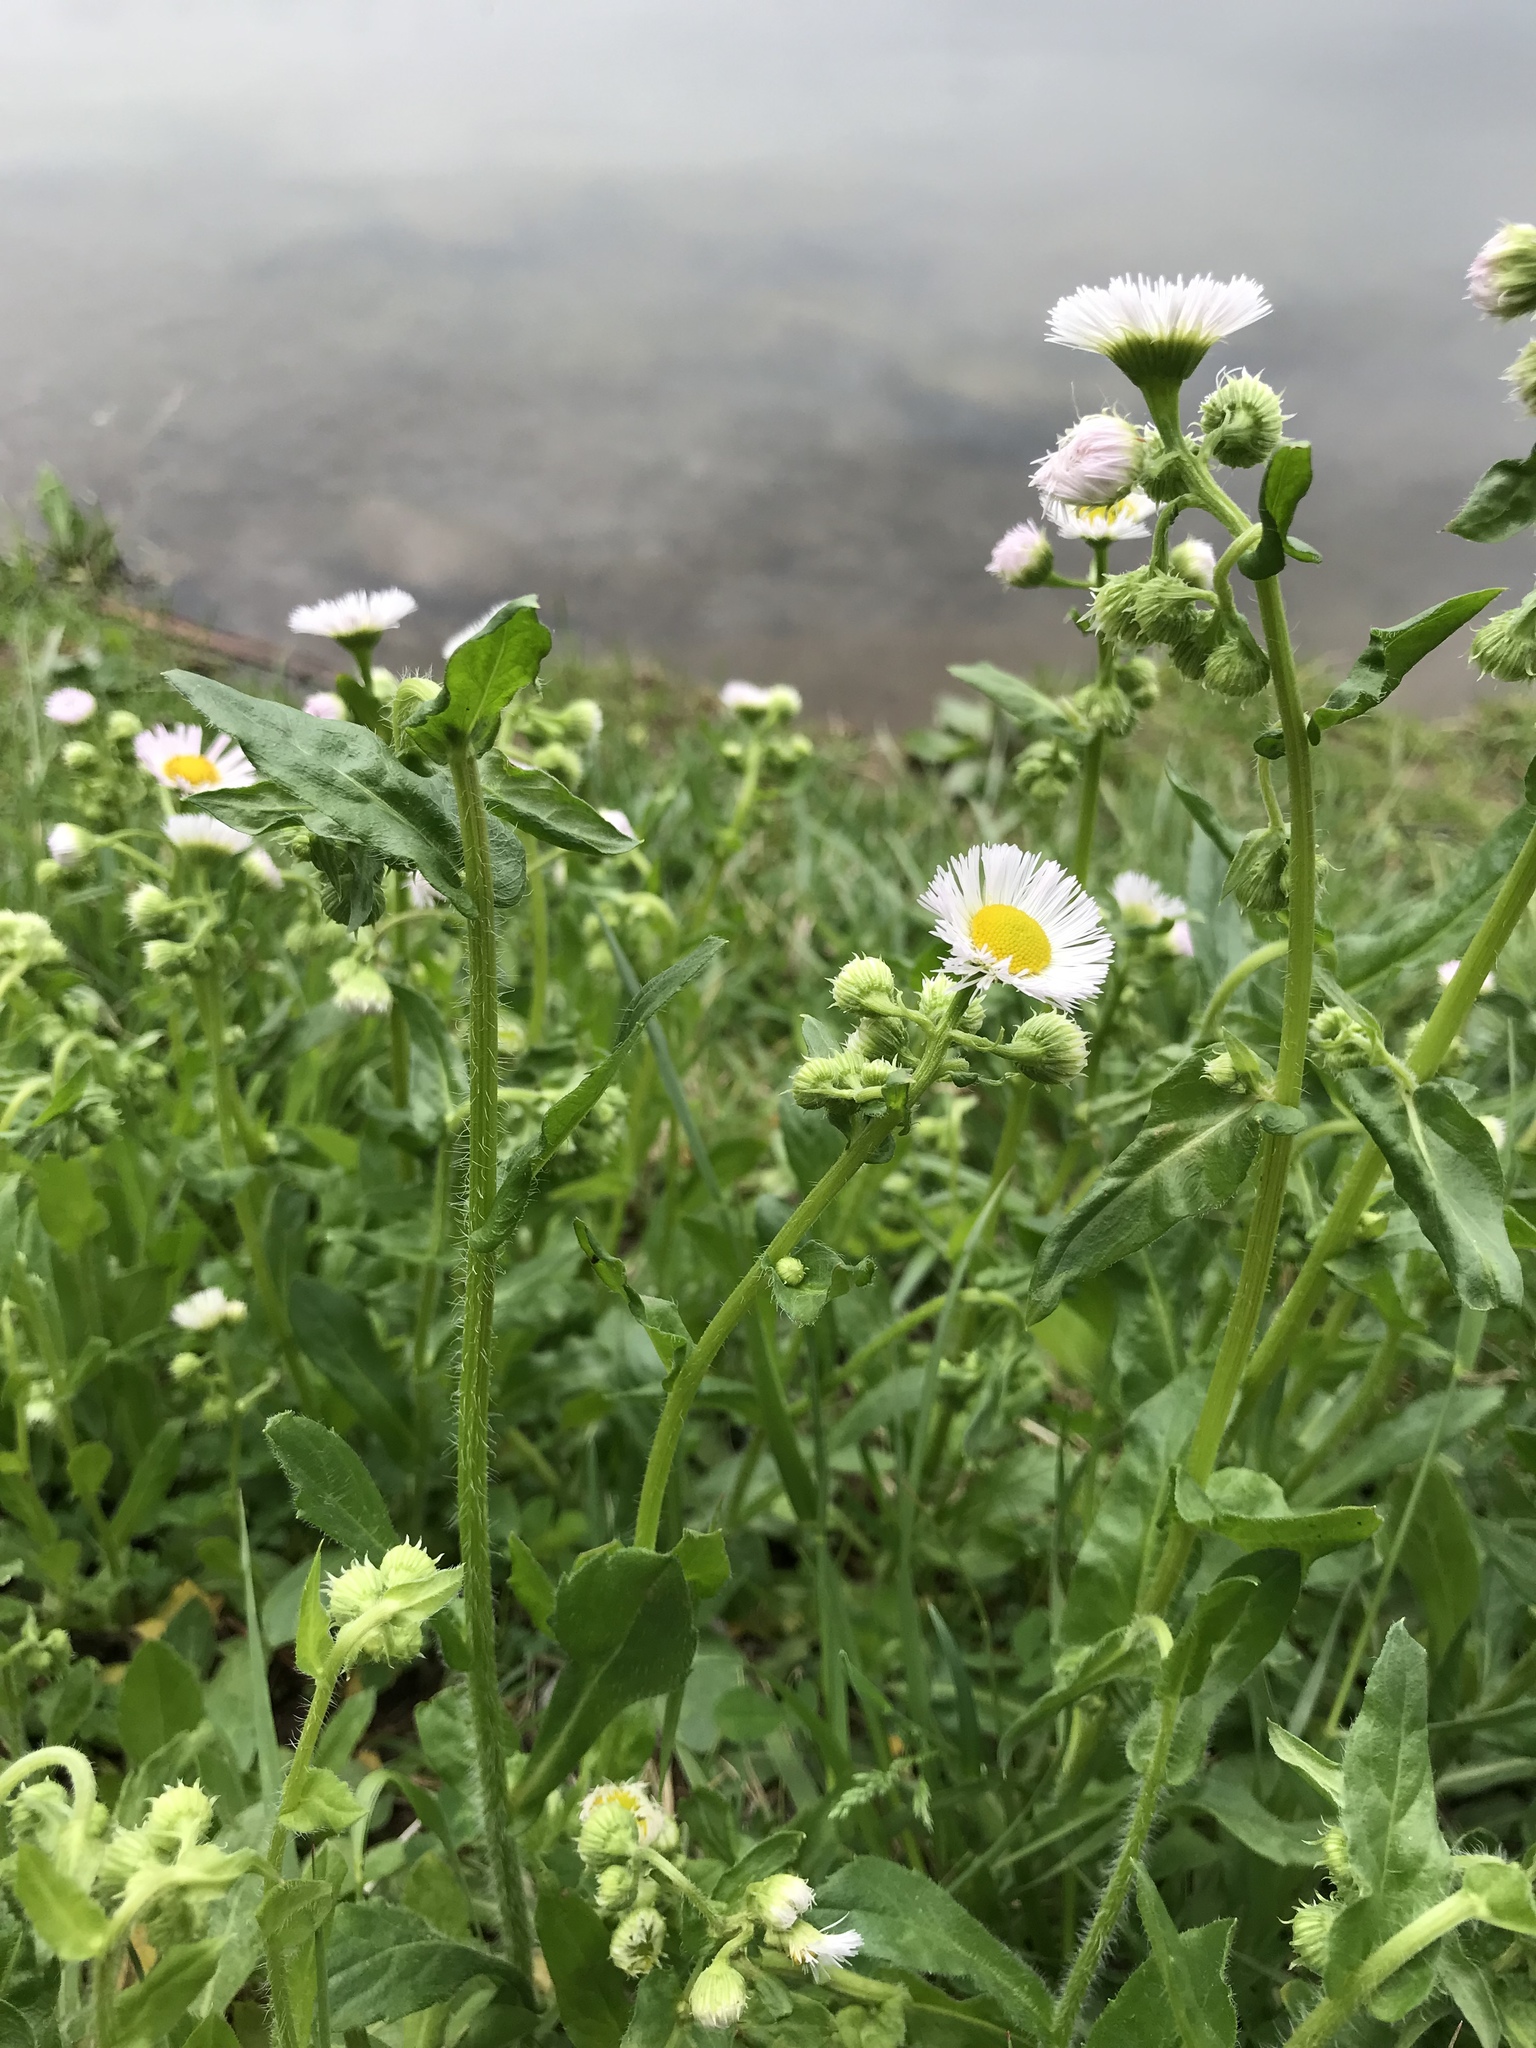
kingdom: Plantae
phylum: Tracheophyta
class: Magnoliopsida
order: Asterales
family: Asteraceae
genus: Erigeron
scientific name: Erigeron philadelphicus
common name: Robin's-plantain
